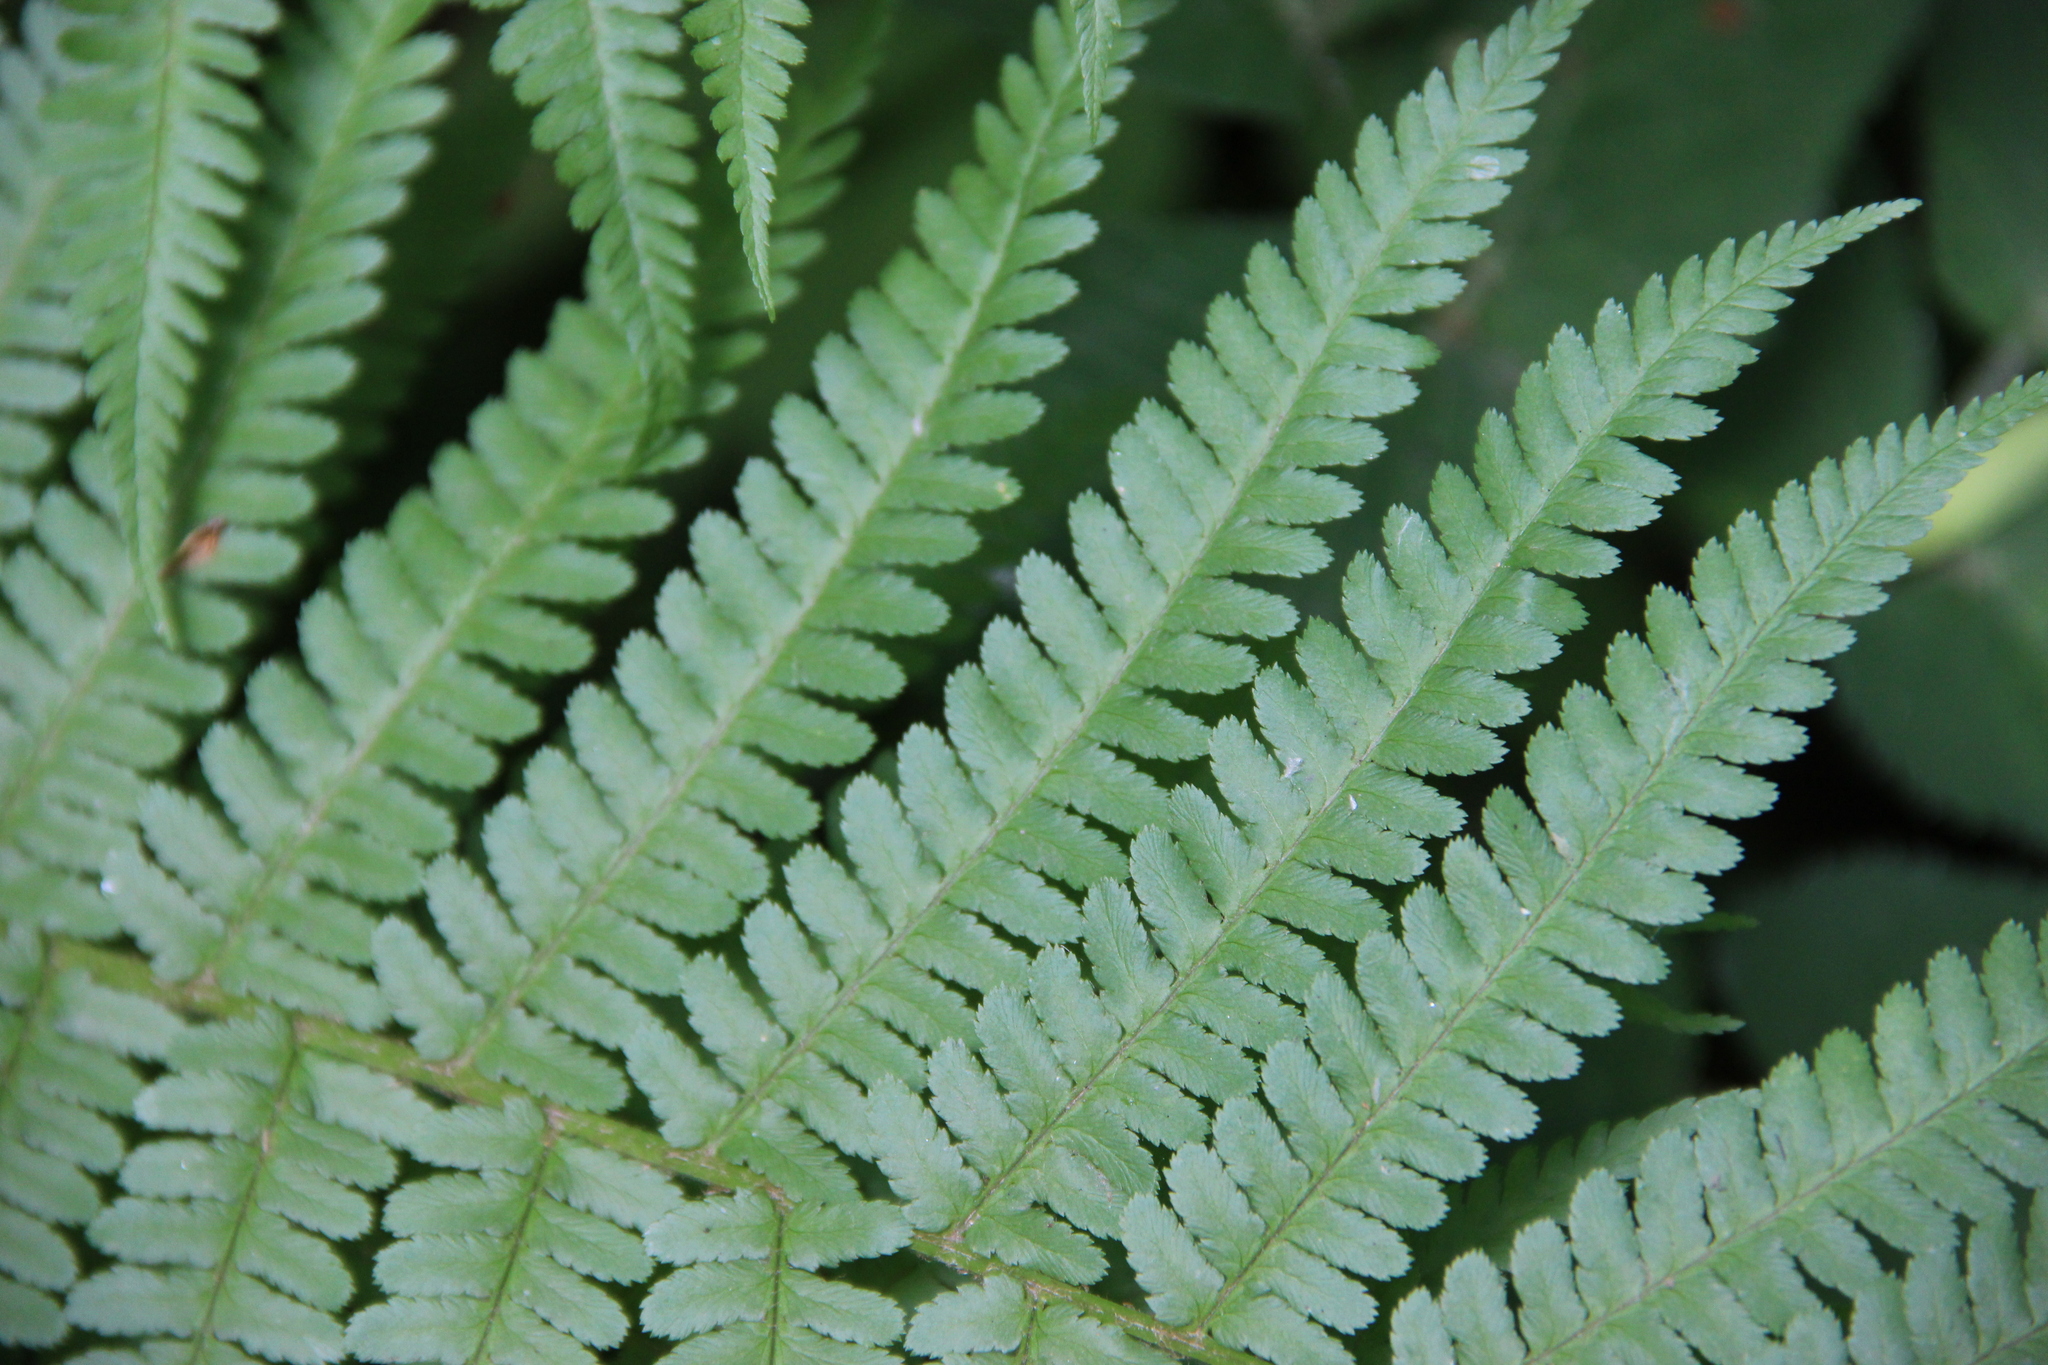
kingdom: Plantae
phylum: Tracheophyta
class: Polypodiopsida
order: Polypodiales
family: Dryopteridaceae
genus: Dryopteris
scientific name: Dryopteris filix-mas
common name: Male fern
